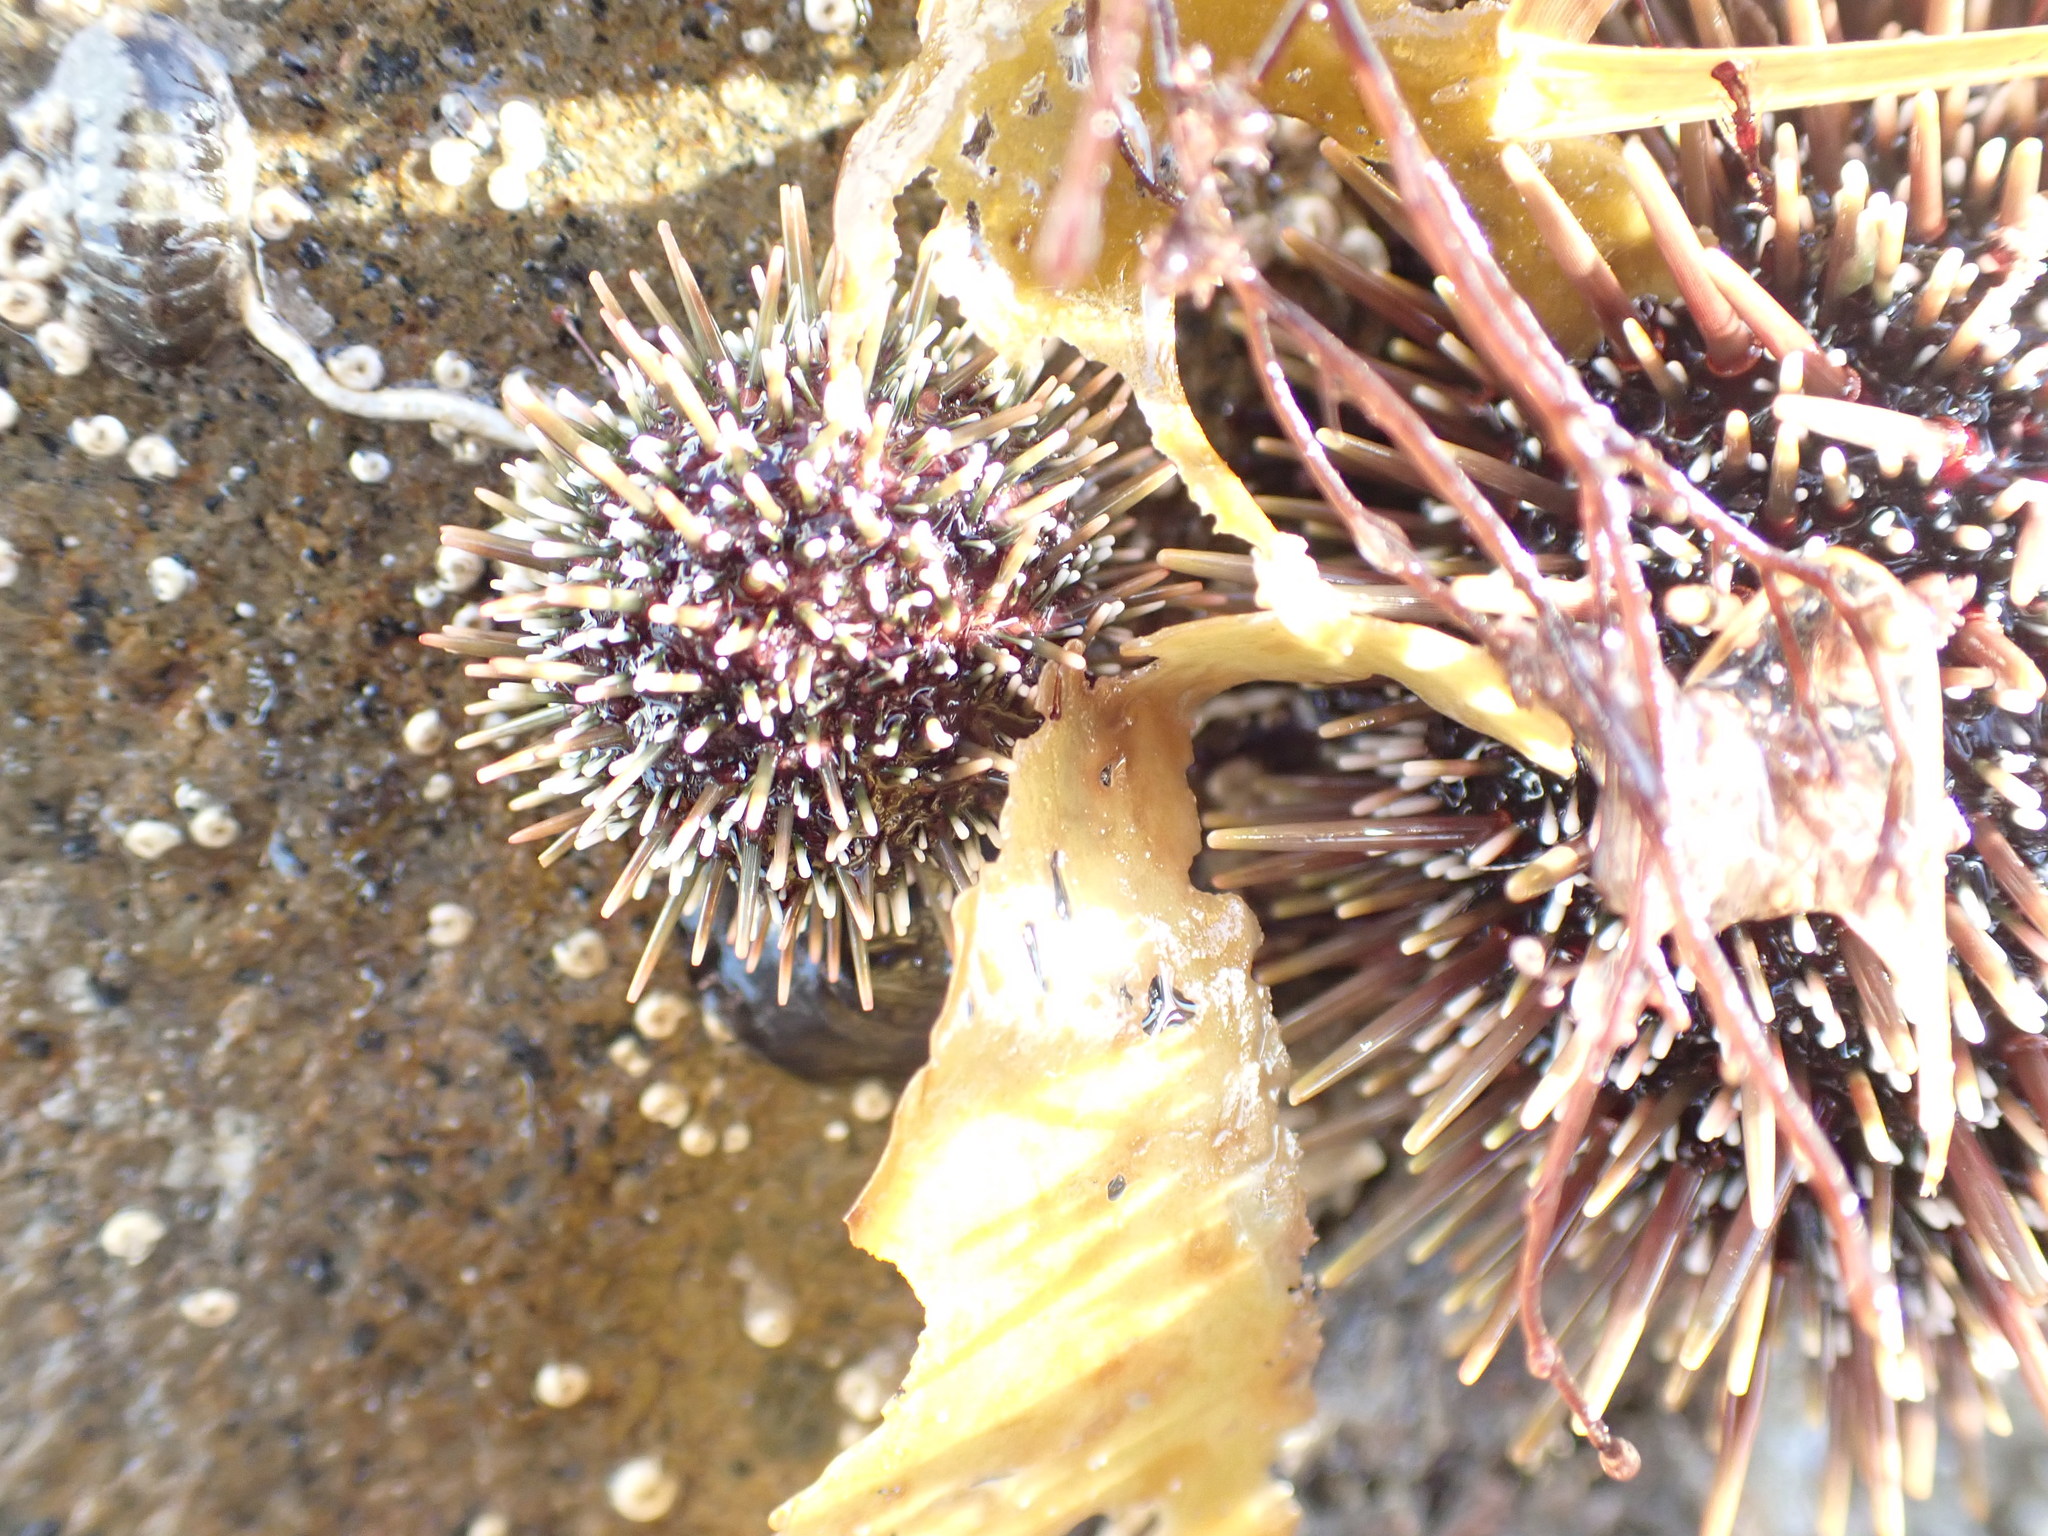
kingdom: Animalia
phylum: Echinodermata
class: Echinoidea
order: Camarodonta
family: Echinometridae
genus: Evechinus
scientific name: Evechinus chloroticus
